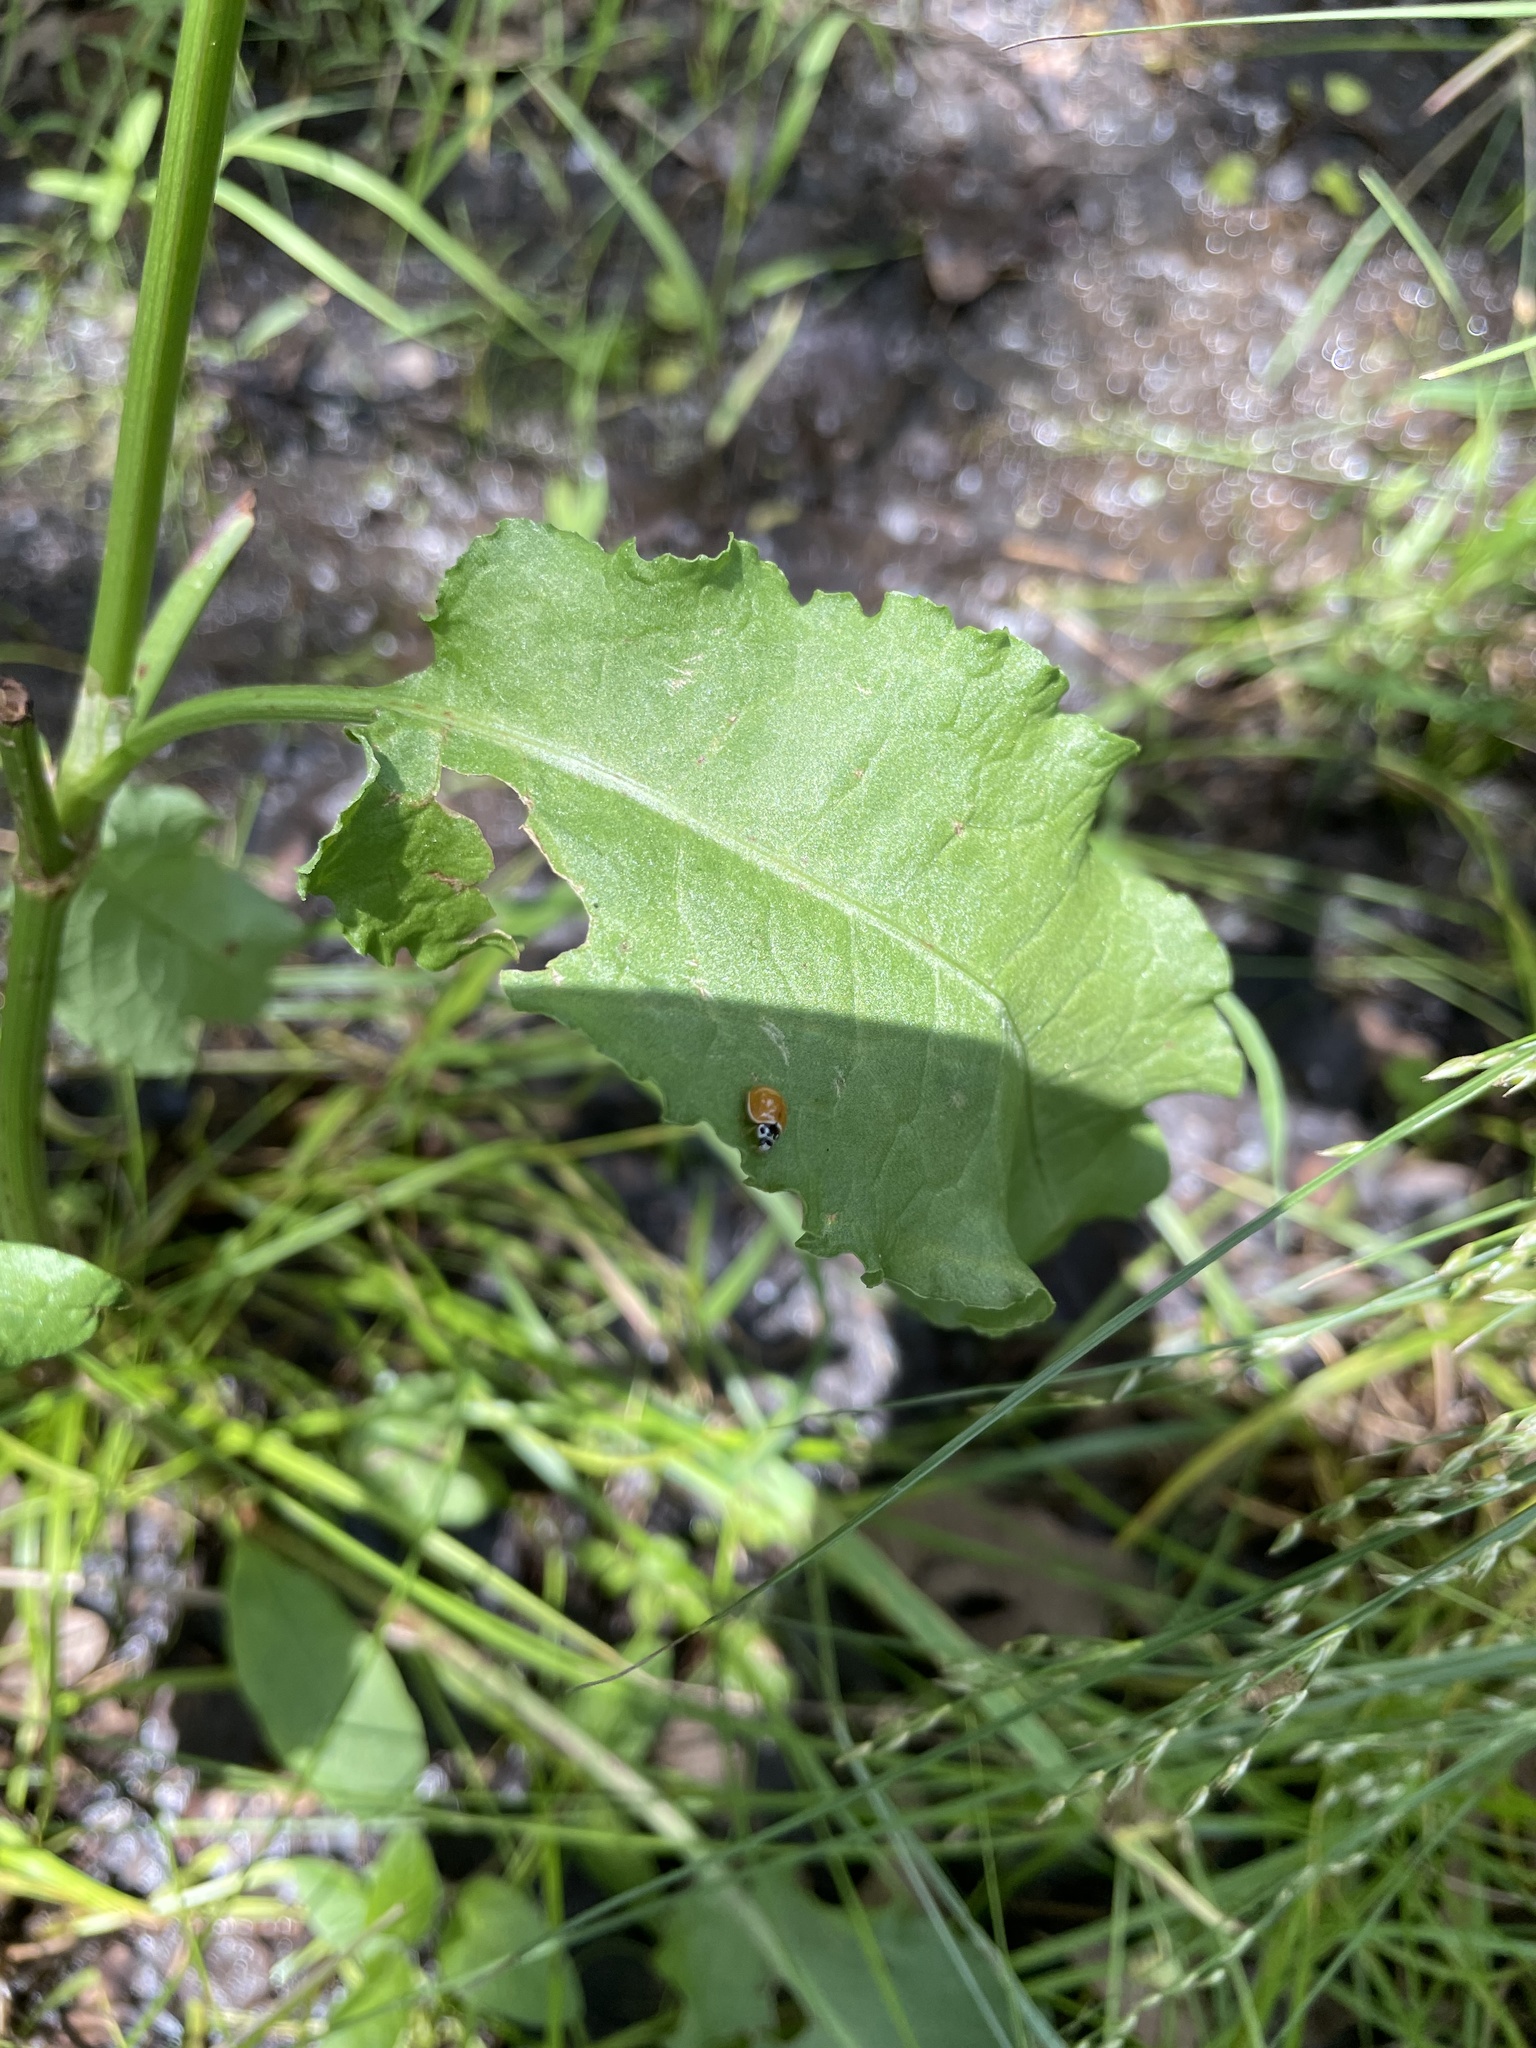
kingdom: Animalia
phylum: Arthropoda
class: Insecta
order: Coleoptera
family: Coccinellidae
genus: Cycloneda
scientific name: Cycloneda munda
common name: Polished lady beetle
